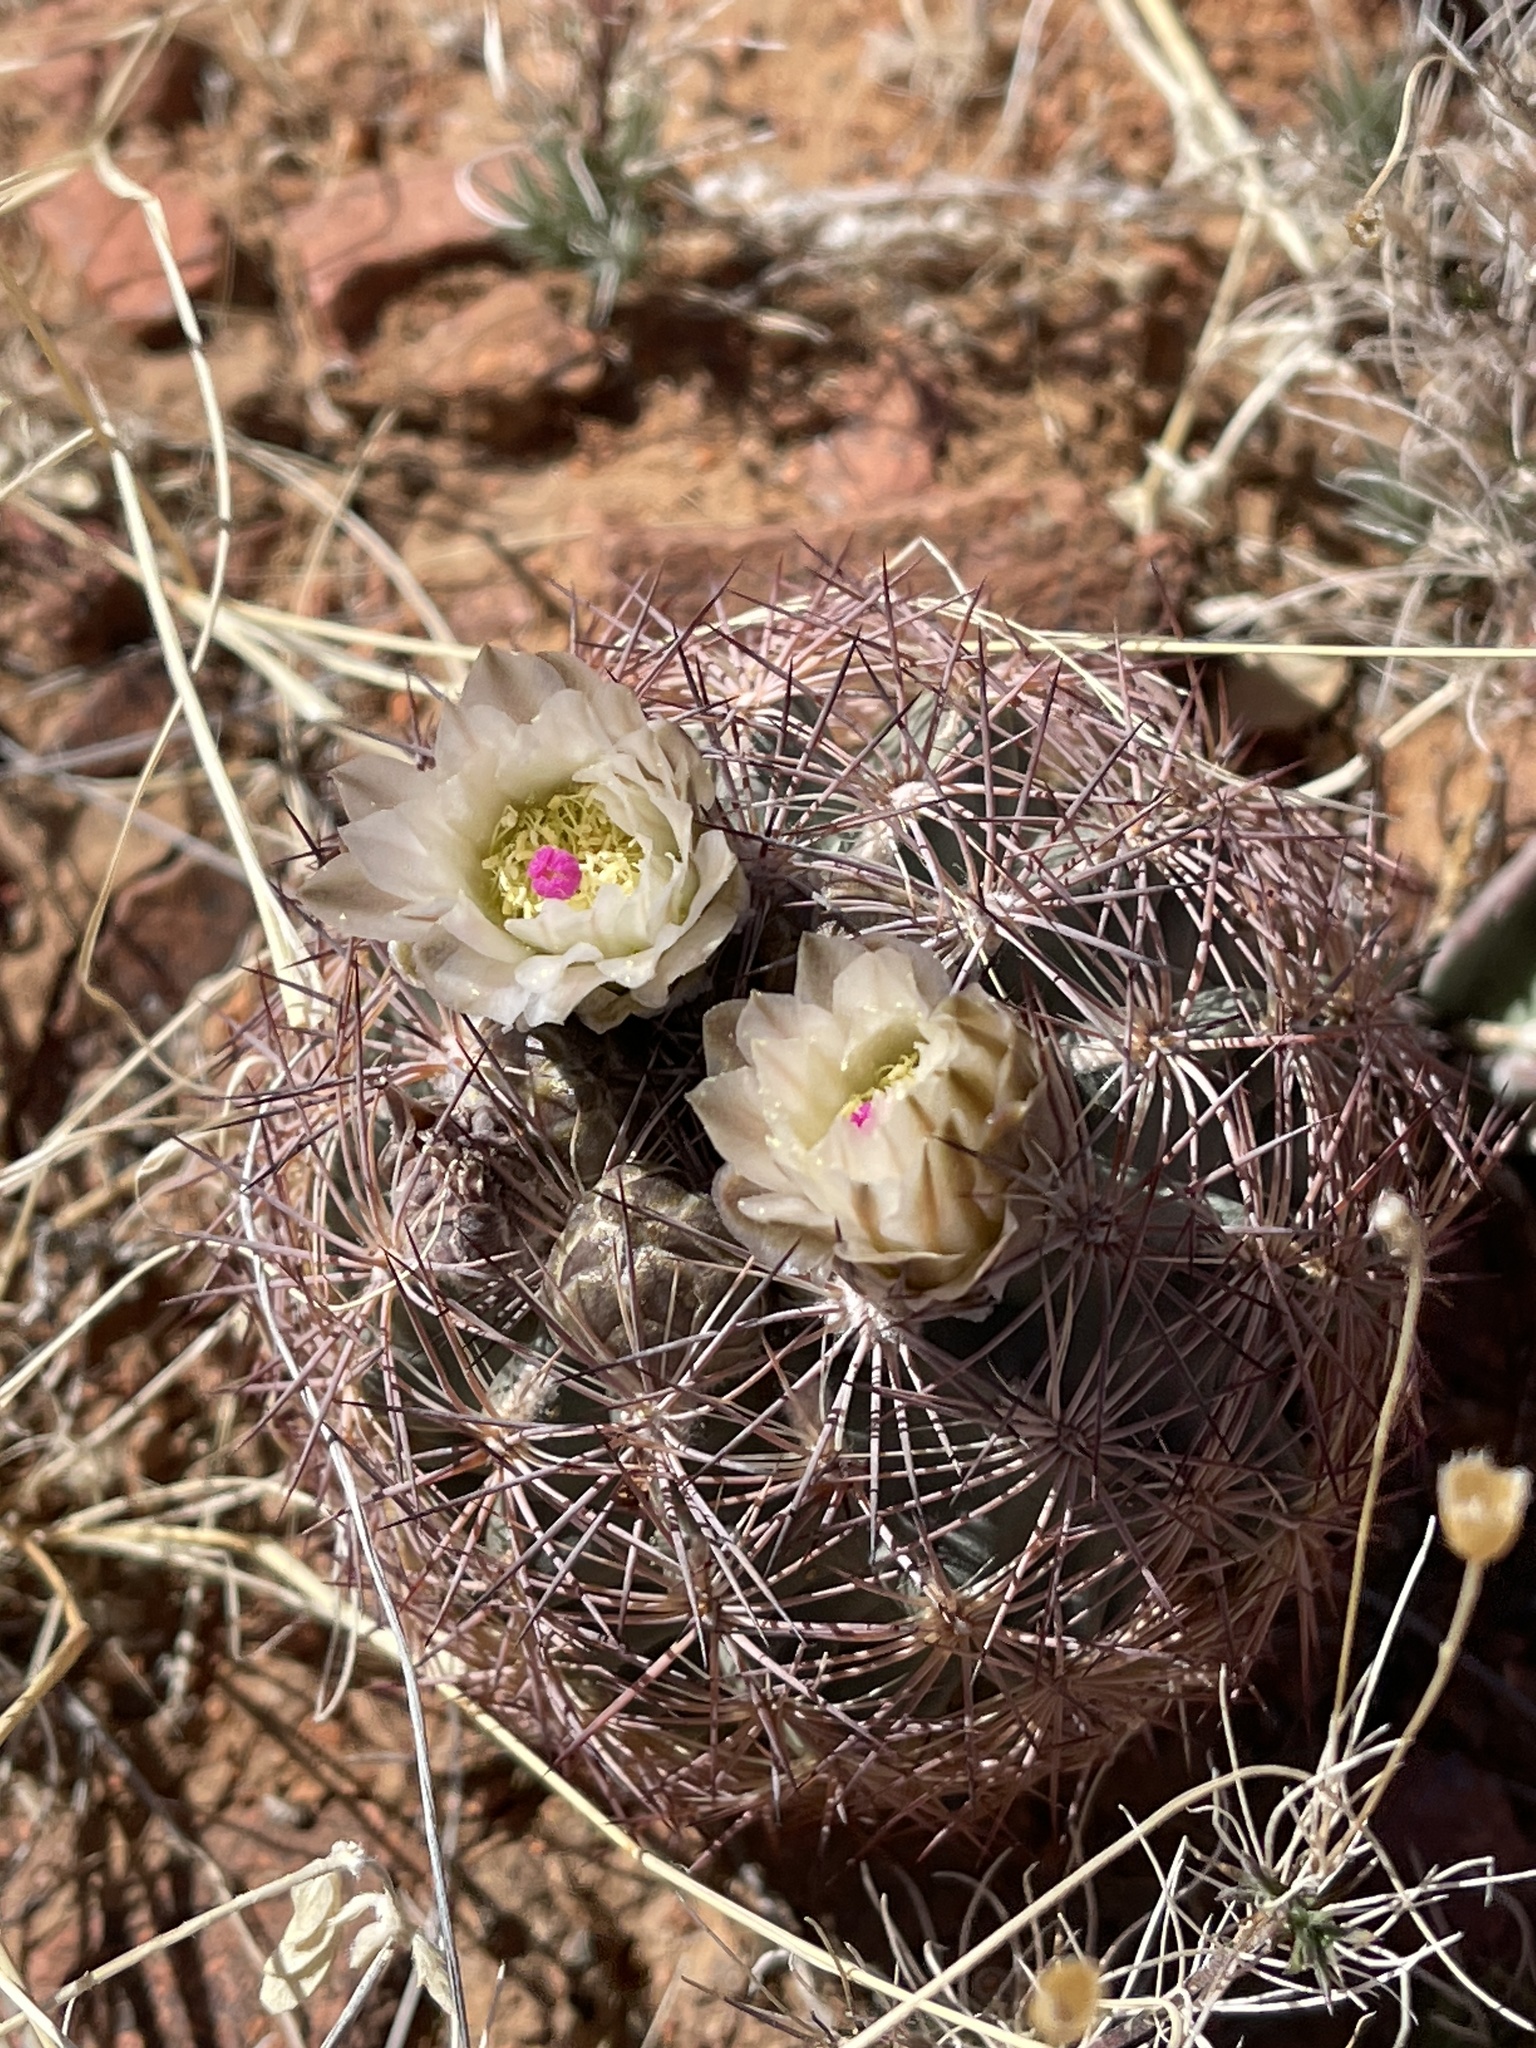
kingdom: Plantae
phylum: Tracheophyta
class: Magnoliopsida
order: Caryophyllales
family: Cactaceae
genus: Sclerocactus
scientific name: Sclerocactus intertextus
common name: White fish-hook cactus
